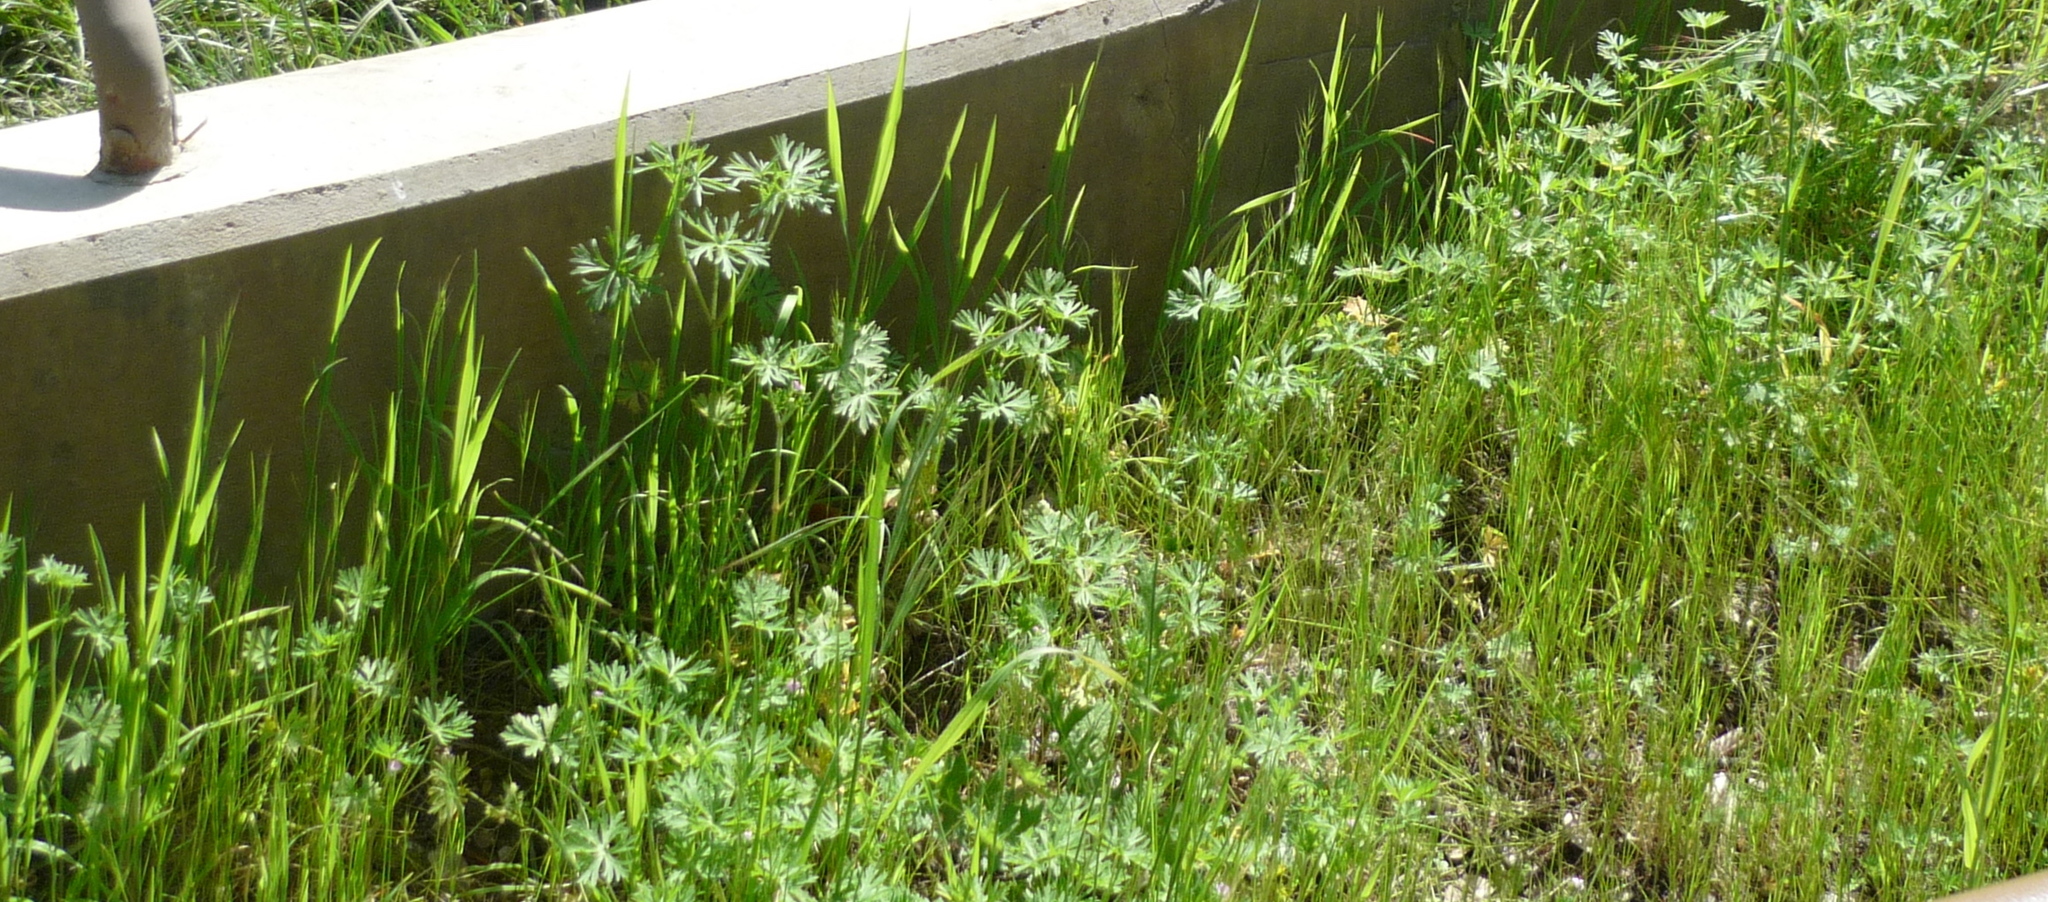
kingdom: Plantae
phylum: Tracheophyta
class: Magnoliopsida
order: Geraniales
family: Geraniaceae
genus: Geranium
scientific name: Geranium dissectum
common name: Cut-leaved crane's-bill
